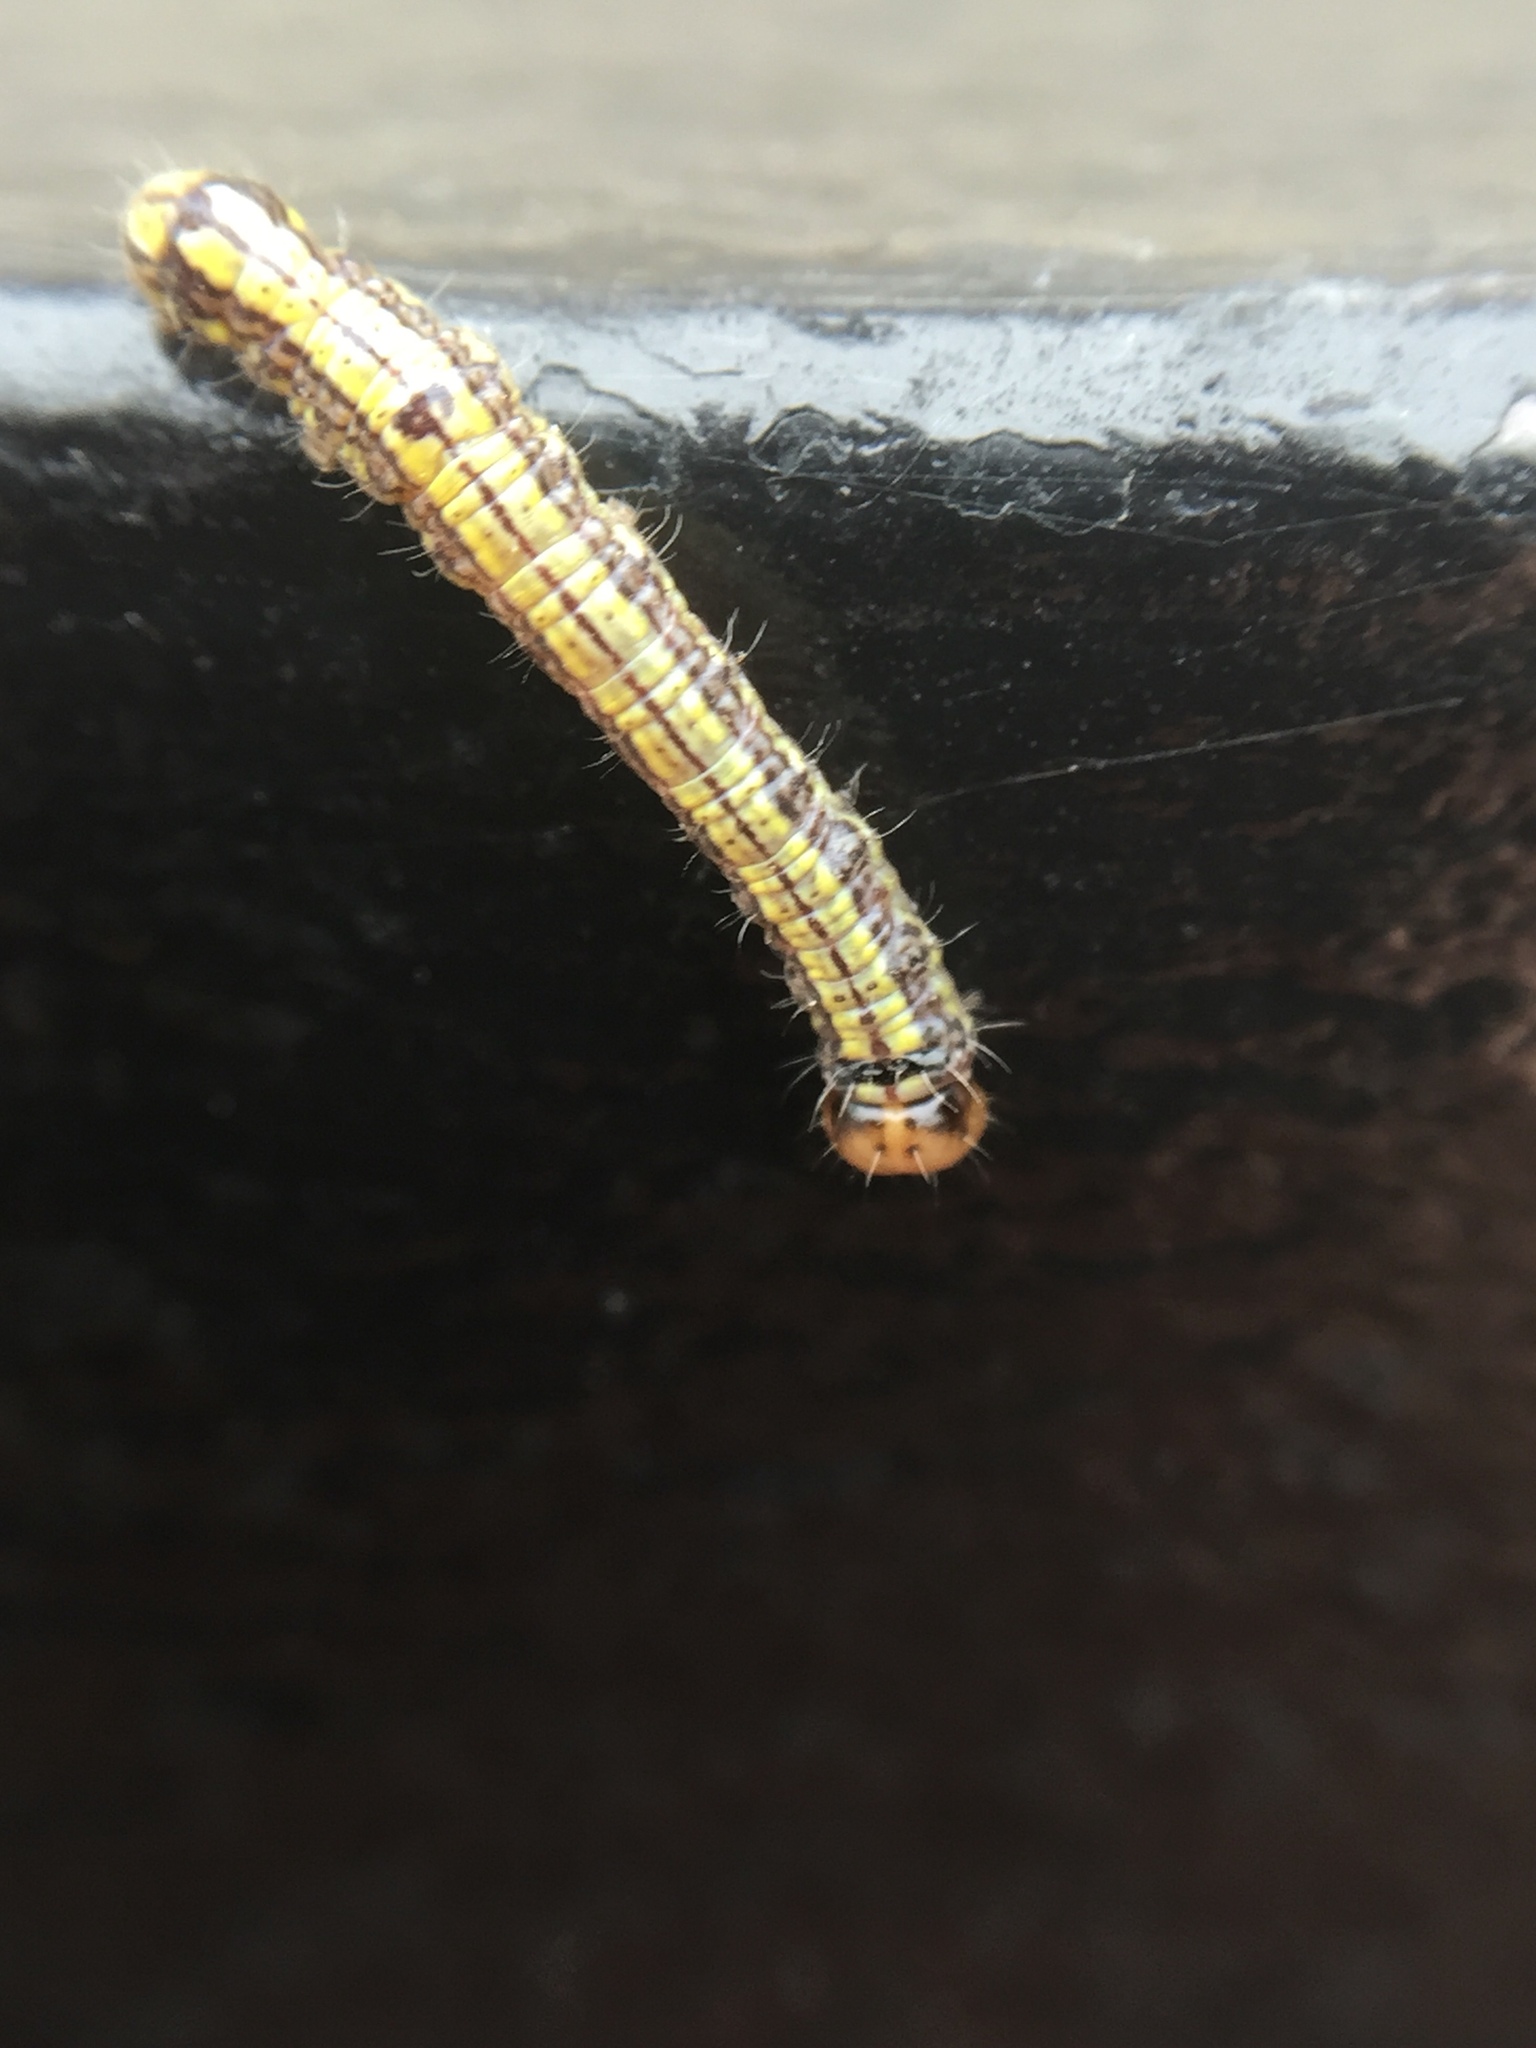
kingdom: Animalia
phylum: Arthropoda
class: Insecta
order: Lepidoptera
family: Notodontidae
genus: Phryganidia
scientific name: Phryganidia californica
